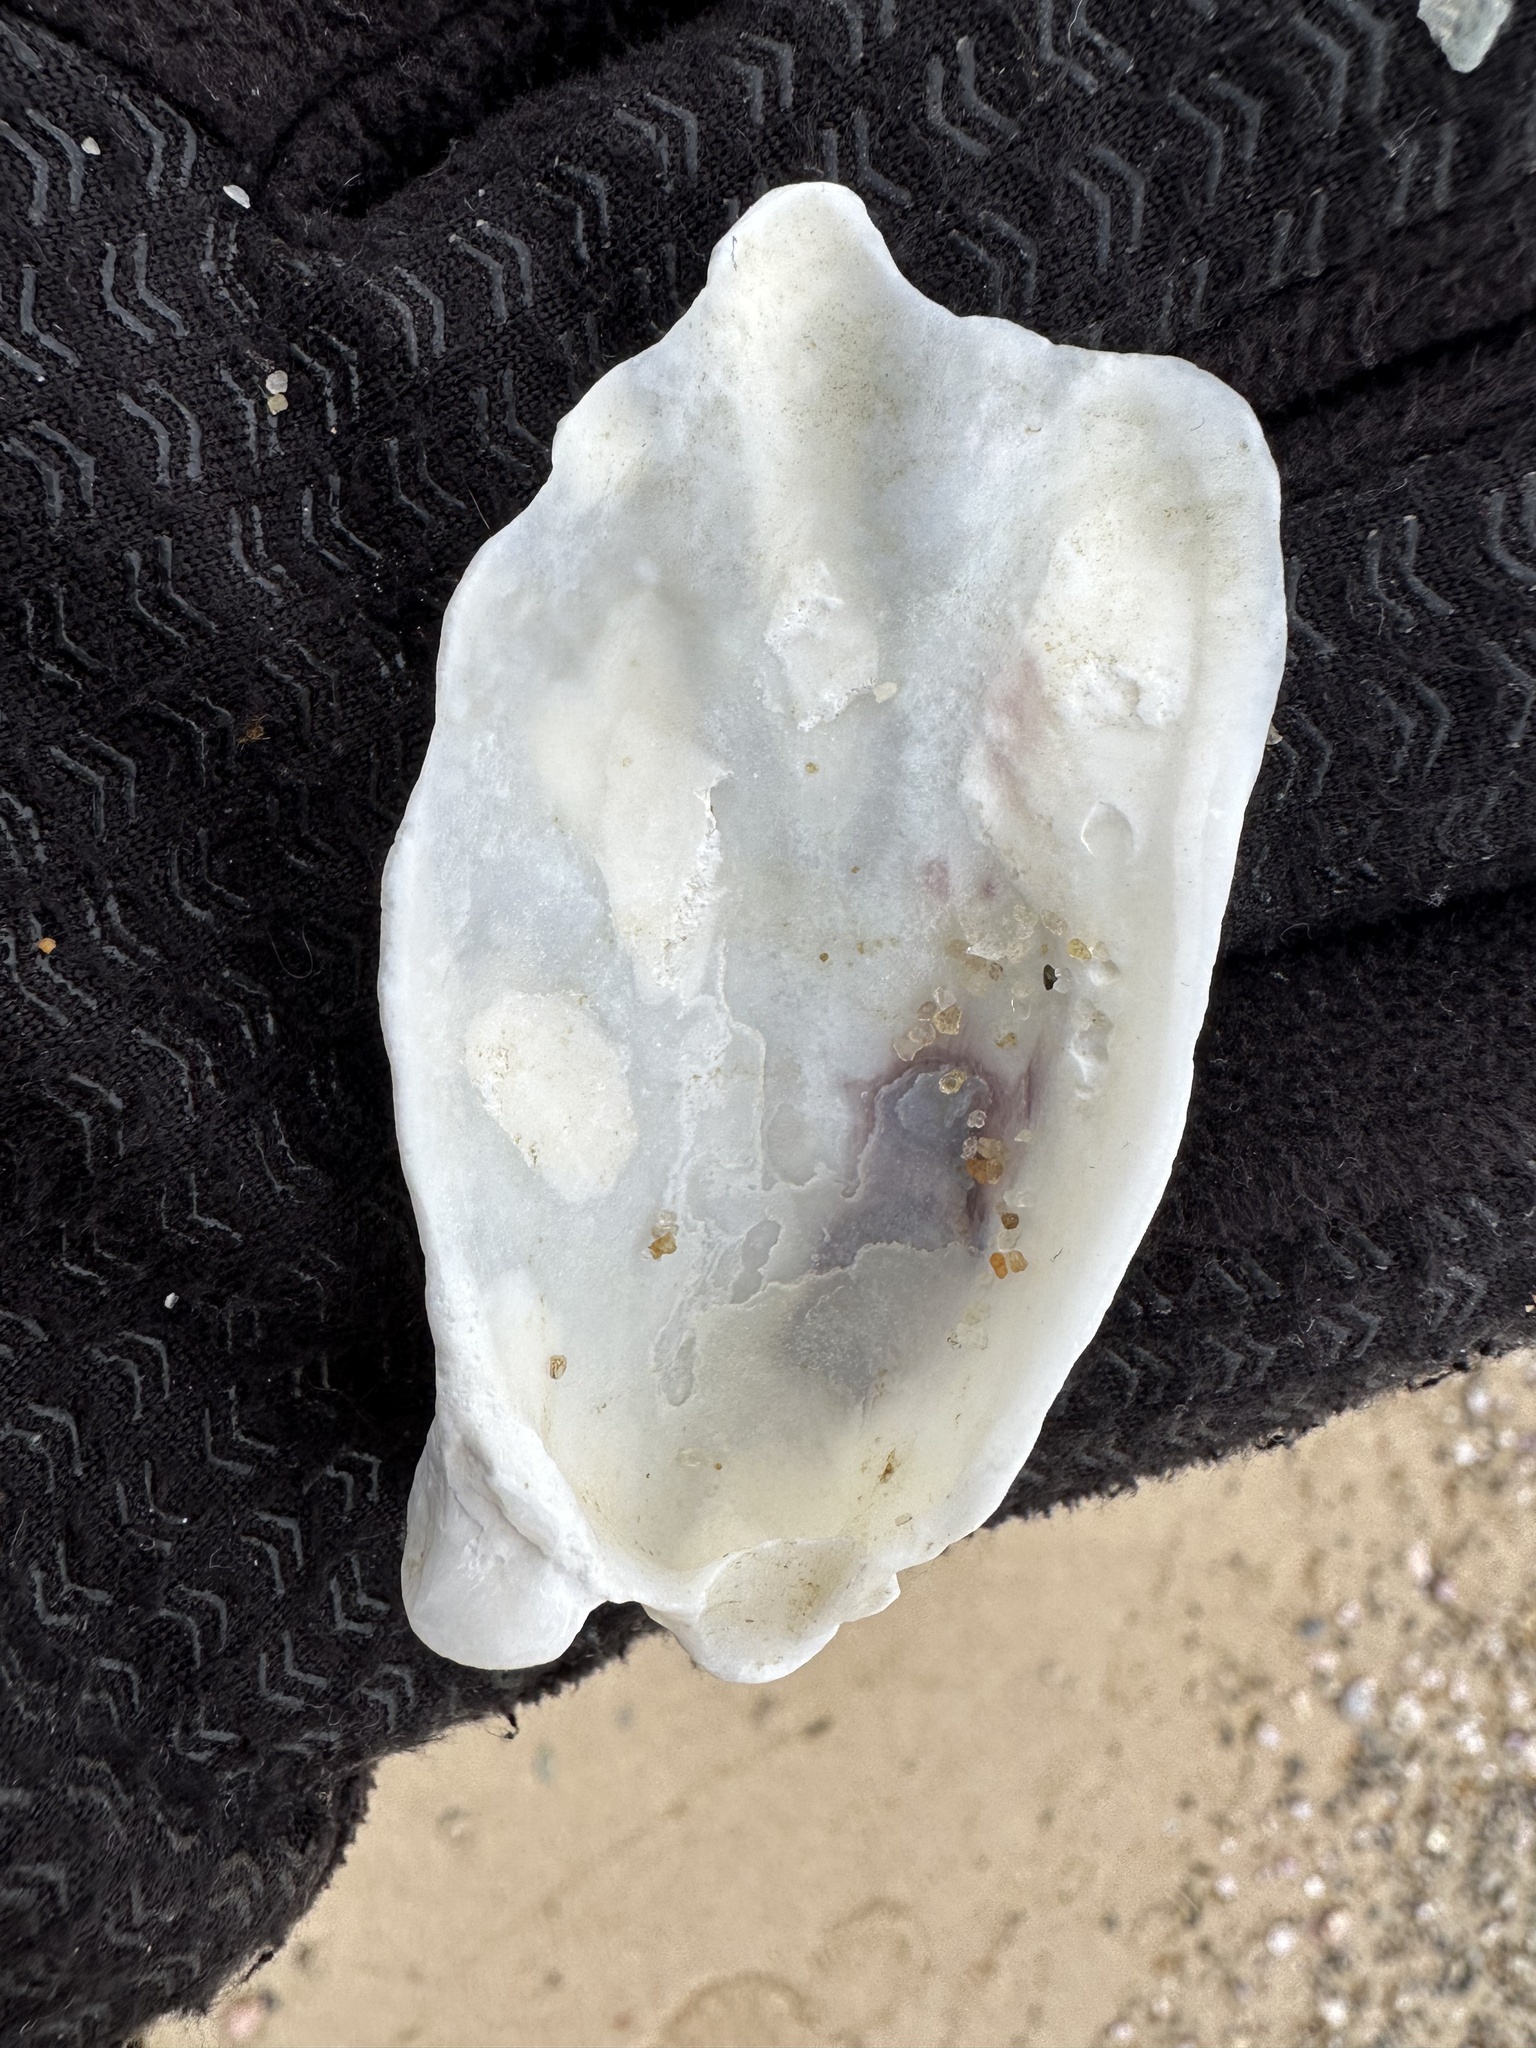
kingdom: Animalia
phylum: Mollusca
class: Bivalvia
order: Ostreida
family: Ostreidae
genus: Crassostrea
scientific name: Crassostrea virginica
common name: American oyster
